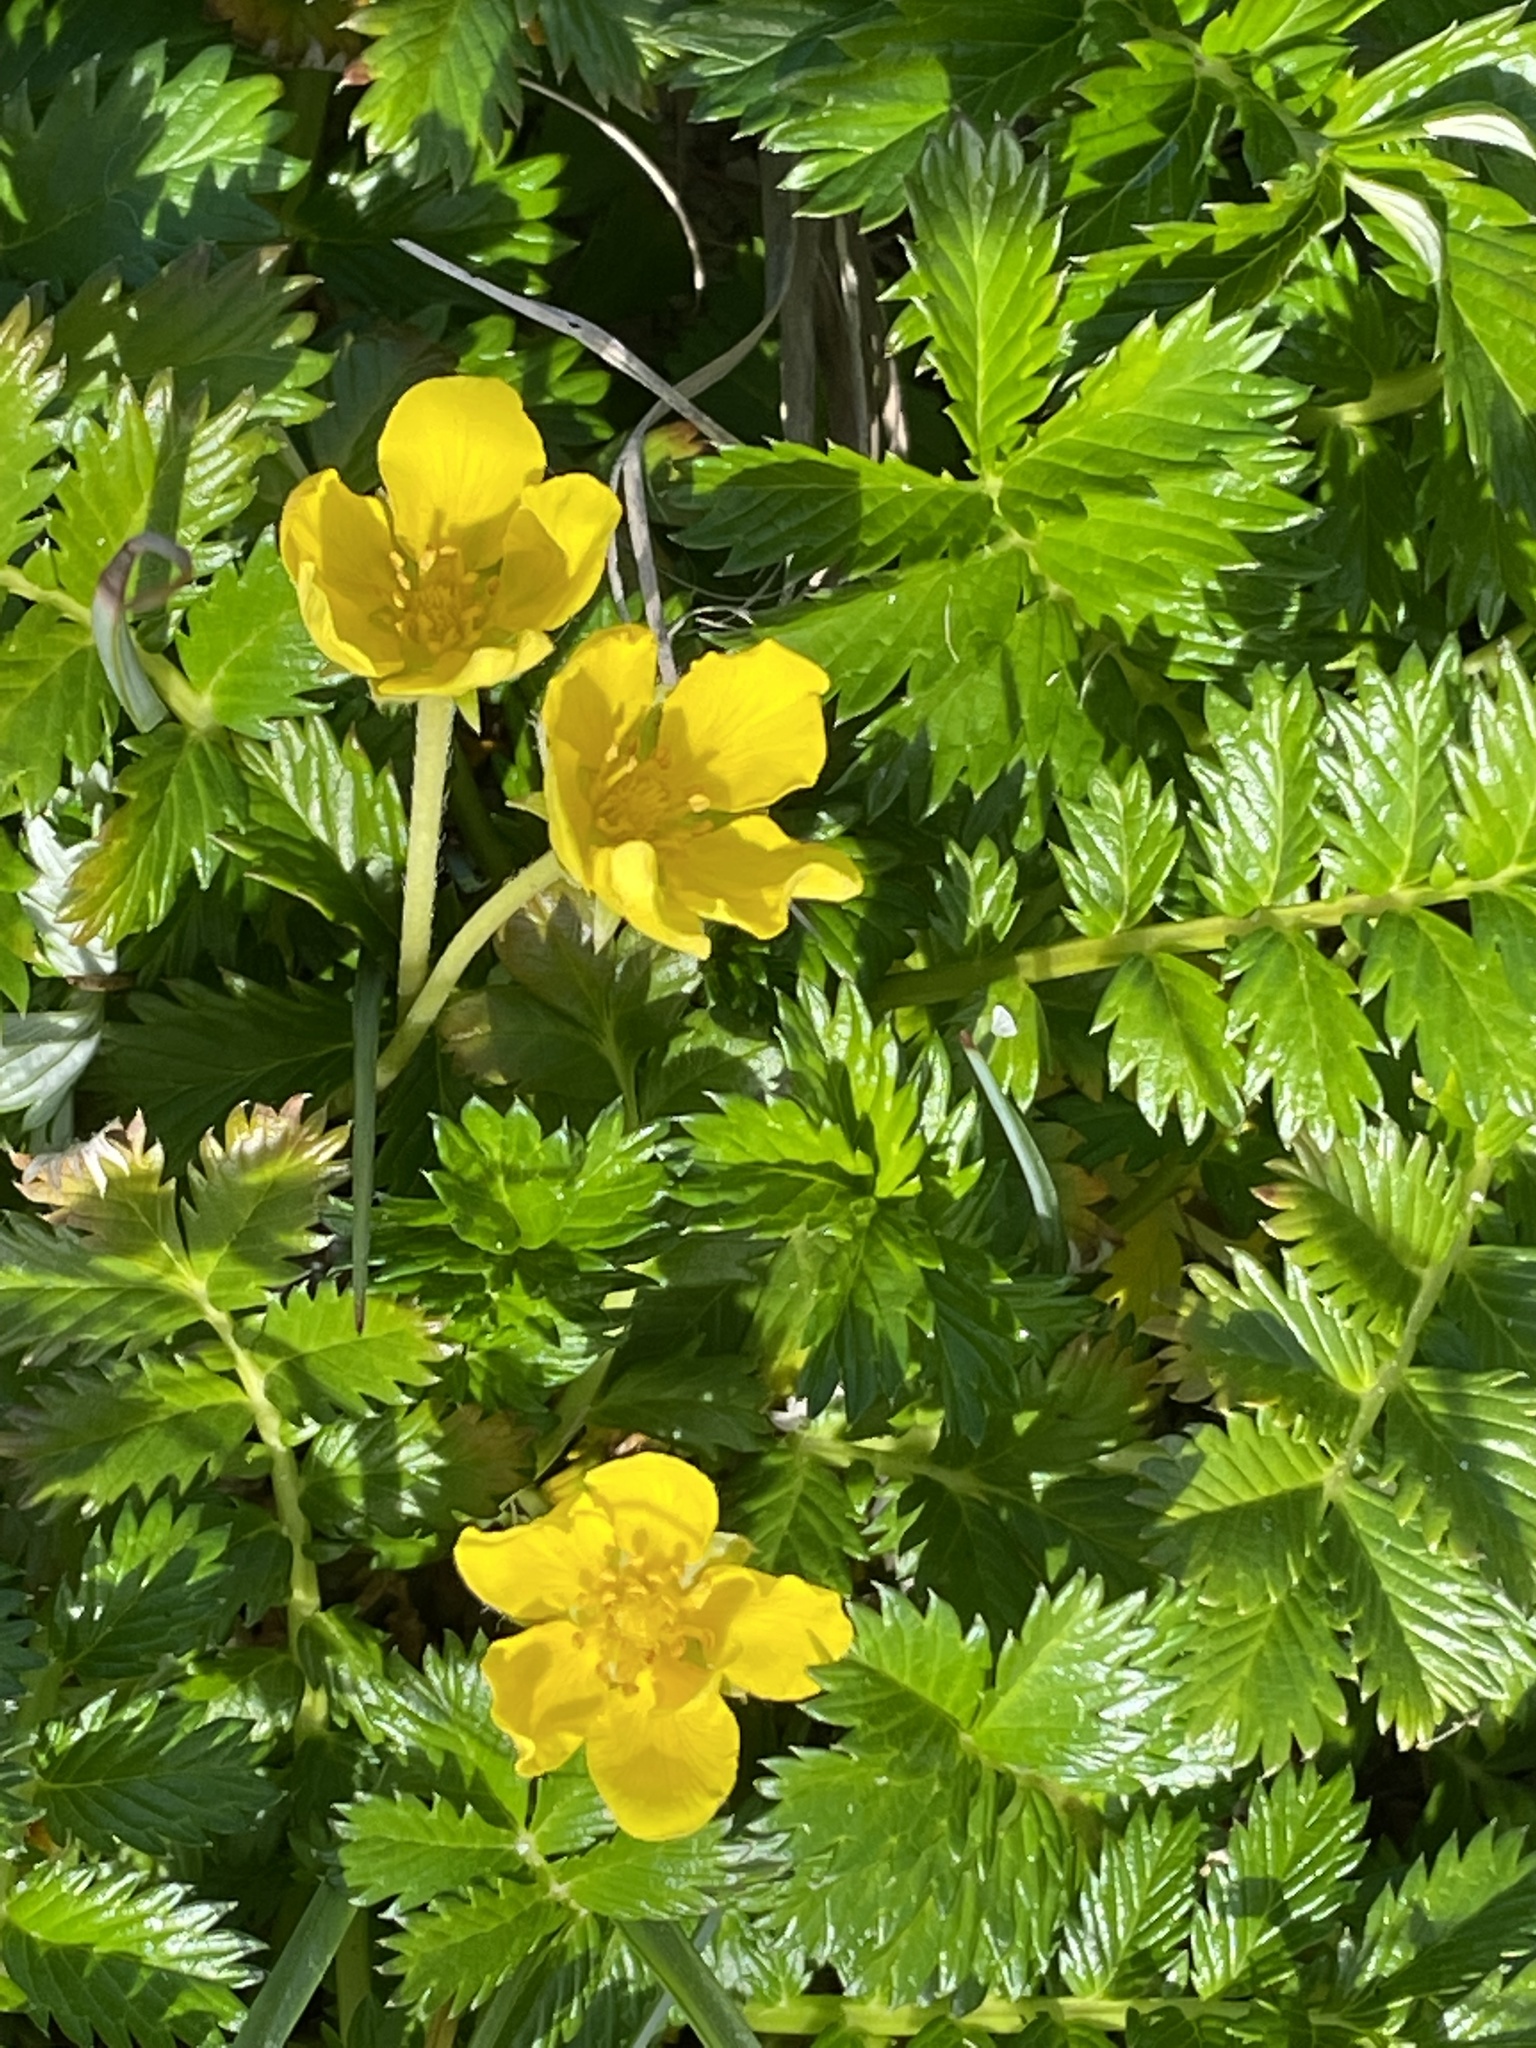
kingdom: Plantae
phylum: Tracheophyta
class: Magnoliopsida
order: Rosales
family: Rosaceae
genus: Argentina
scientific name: Argentina anserina
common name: Common silverweed
